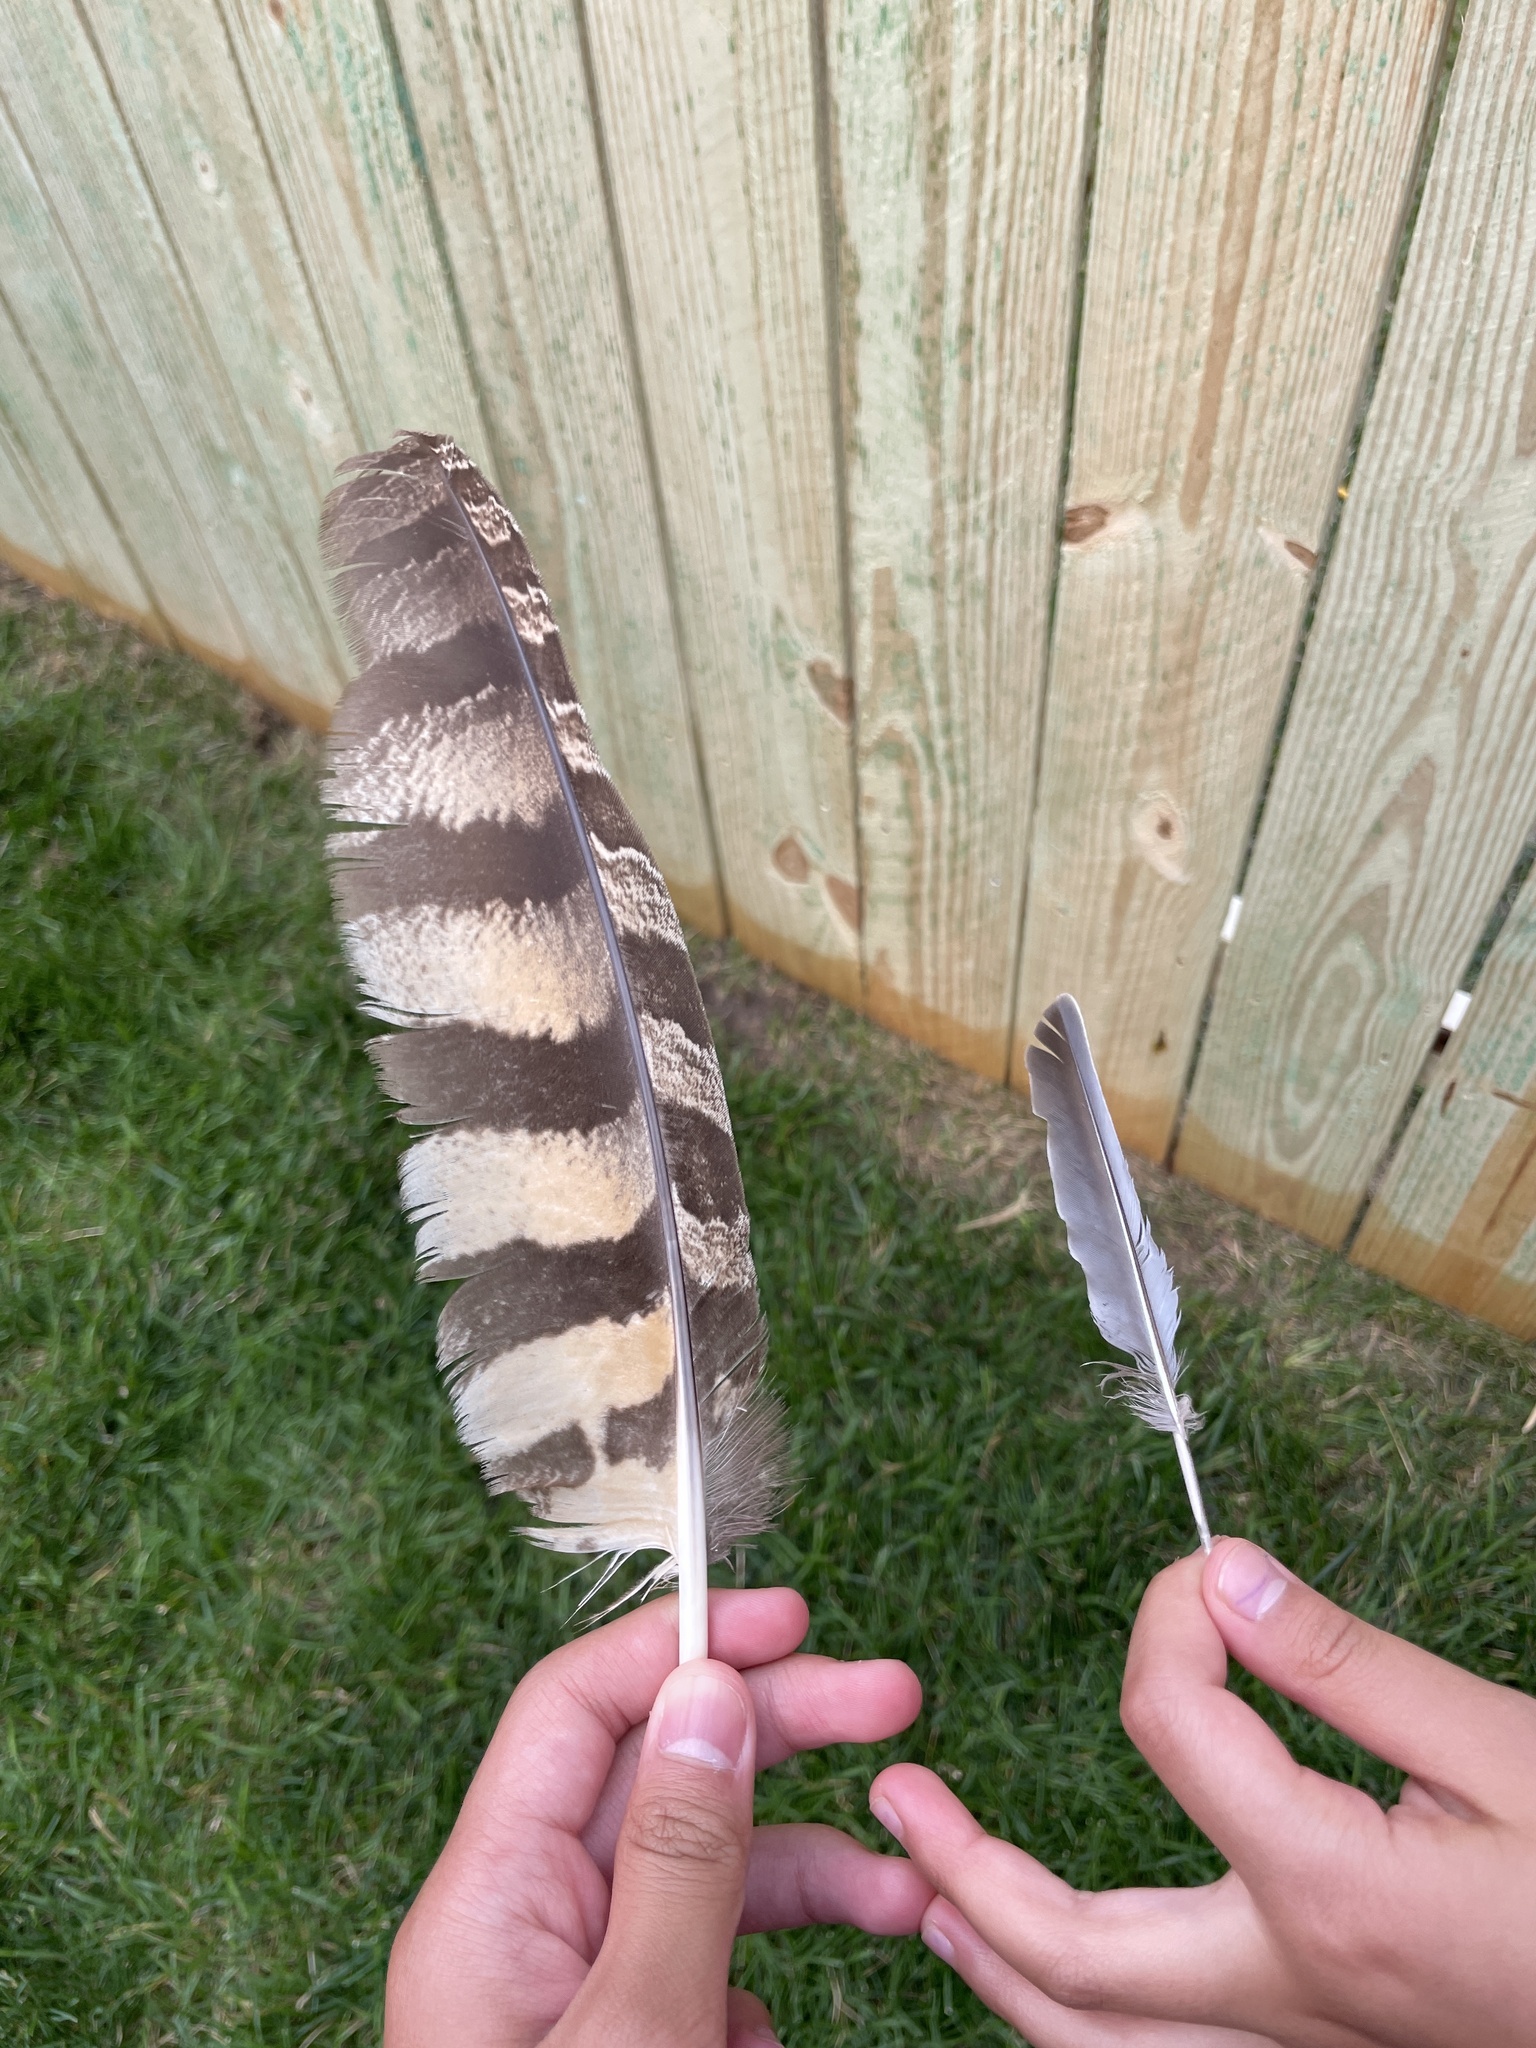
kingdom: Animalia
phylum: Chordata
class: Aves
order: Strigiformes
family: Strigidae
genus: Bubo
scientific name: Bubo virginianus
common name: Great horned owl
